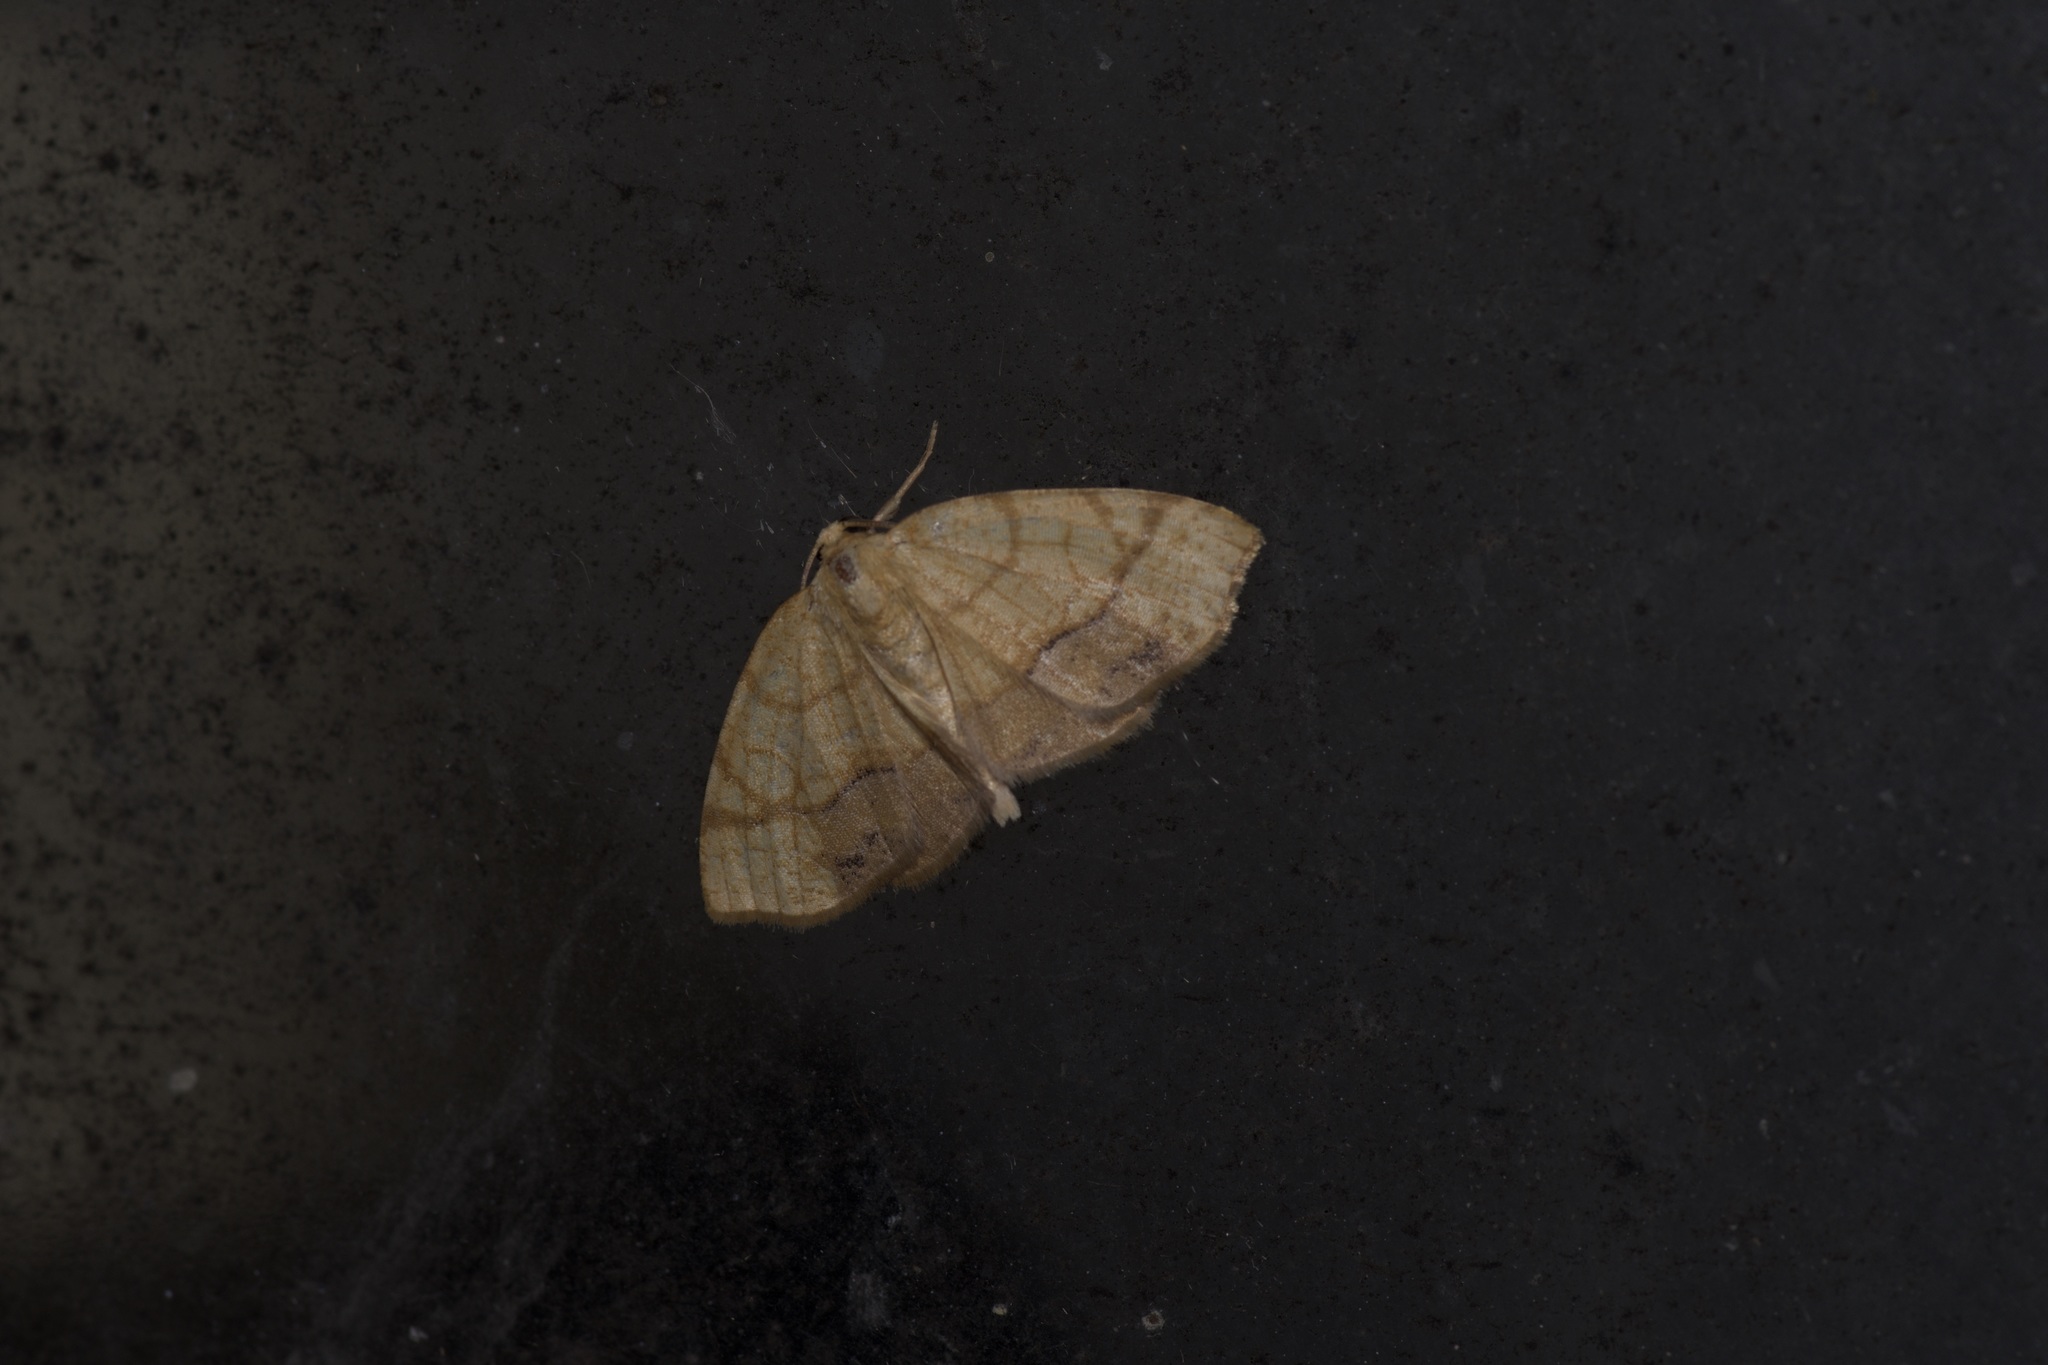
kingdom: Animalia
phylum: Arthropoda
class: Insecta
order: Lepidoptera
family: Geometridae
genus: Nematocampa
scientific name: Nematocampa resistaria
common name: Horned spanworm moth
